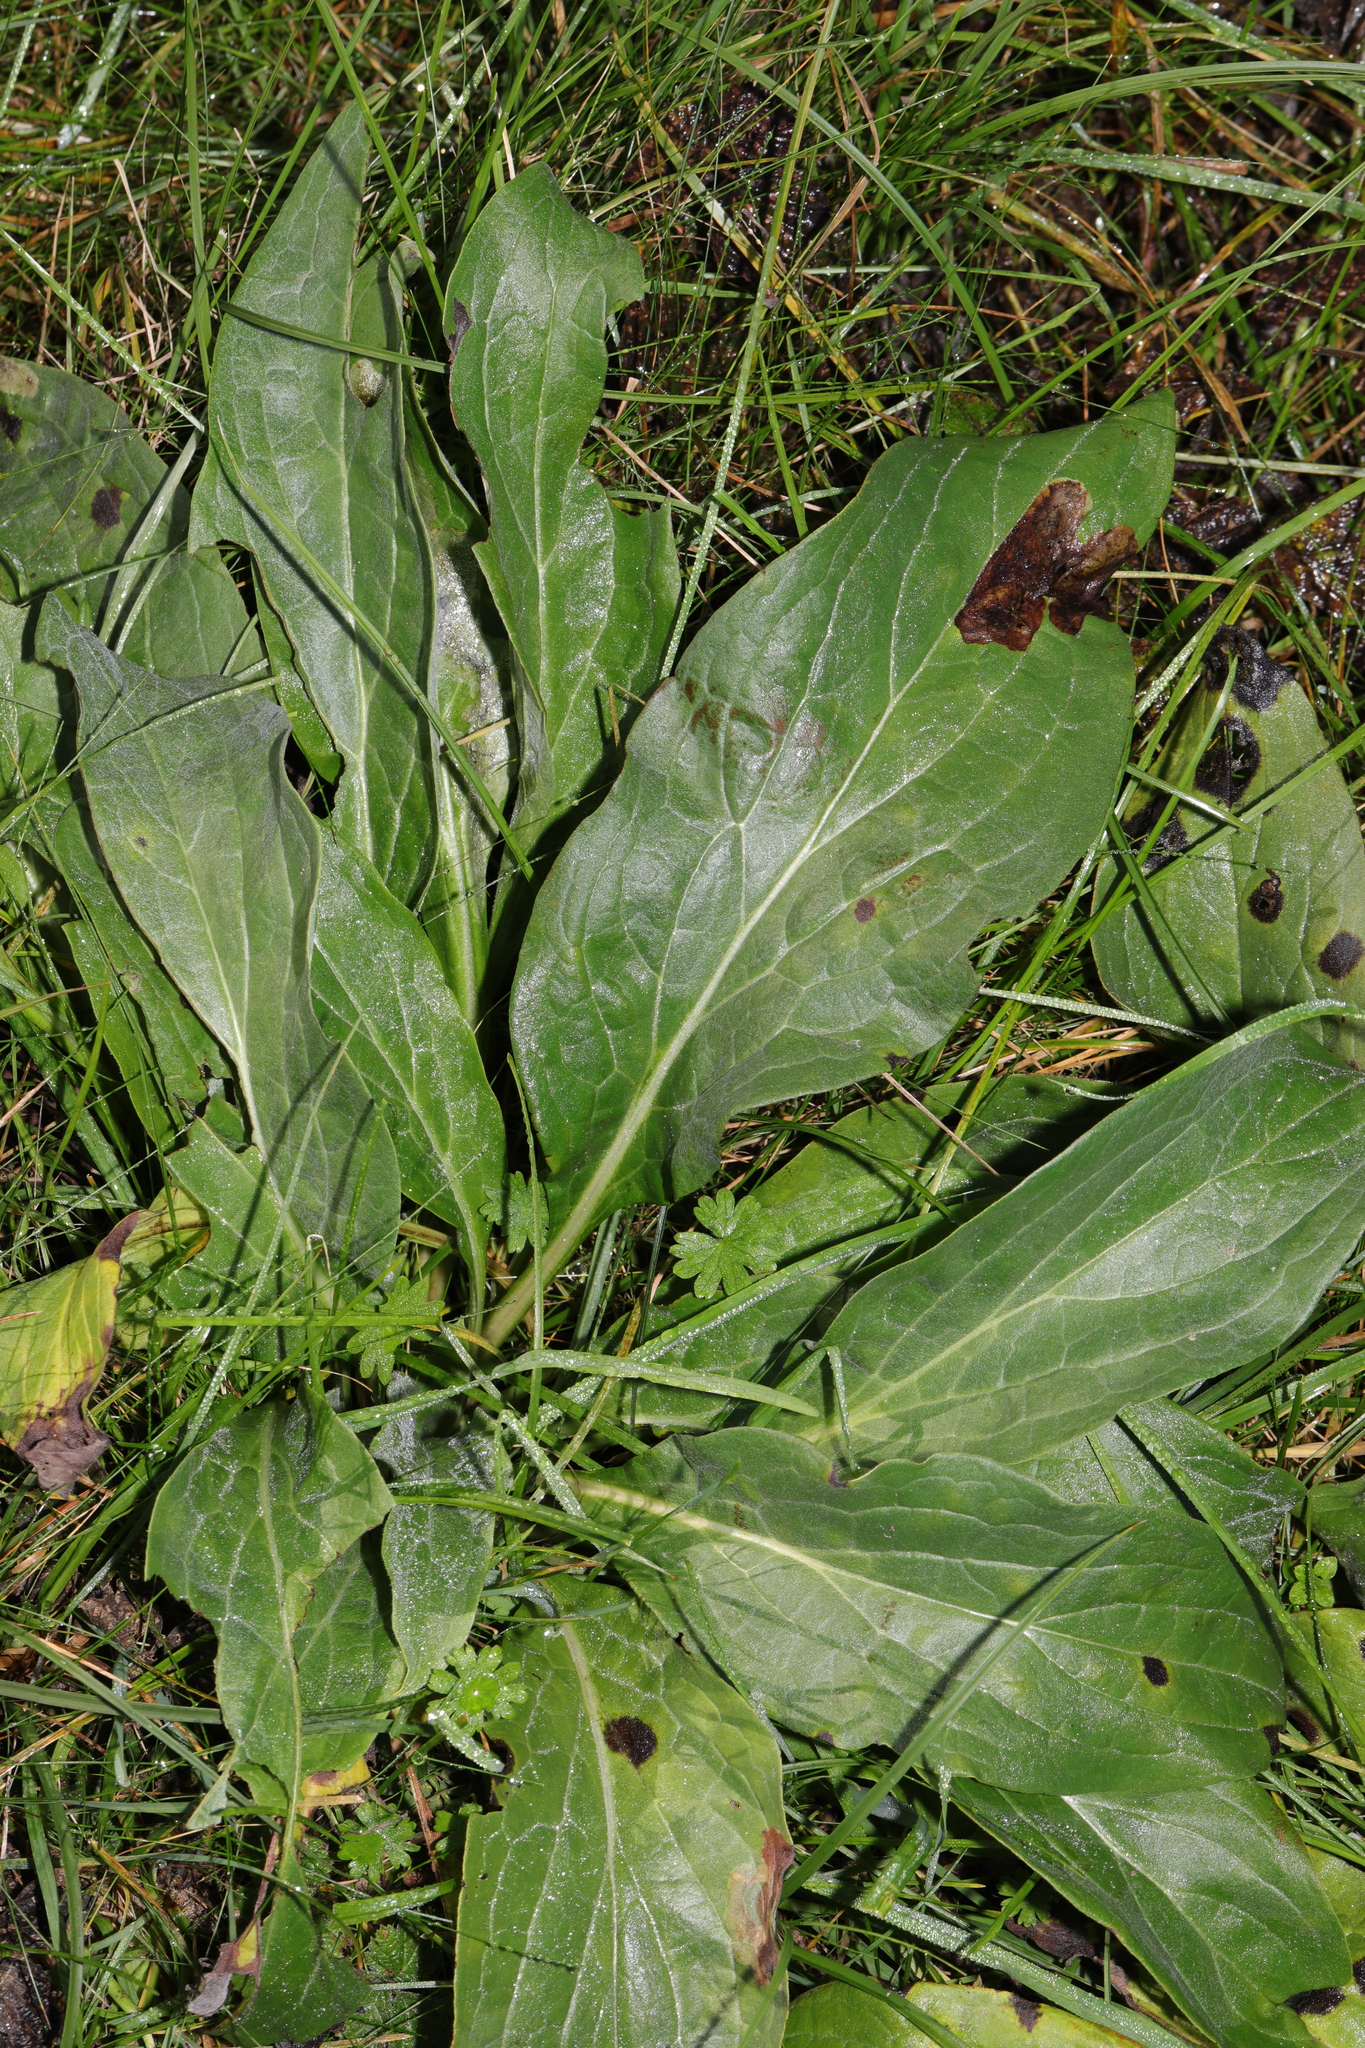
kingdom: Plantae
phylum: Tracheophyta
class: Magnoliopsida
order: Boraginales
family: Boraginaceae
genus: Cynoglossum
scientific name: Cynoglossum officinale
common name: Hound's-tongue
